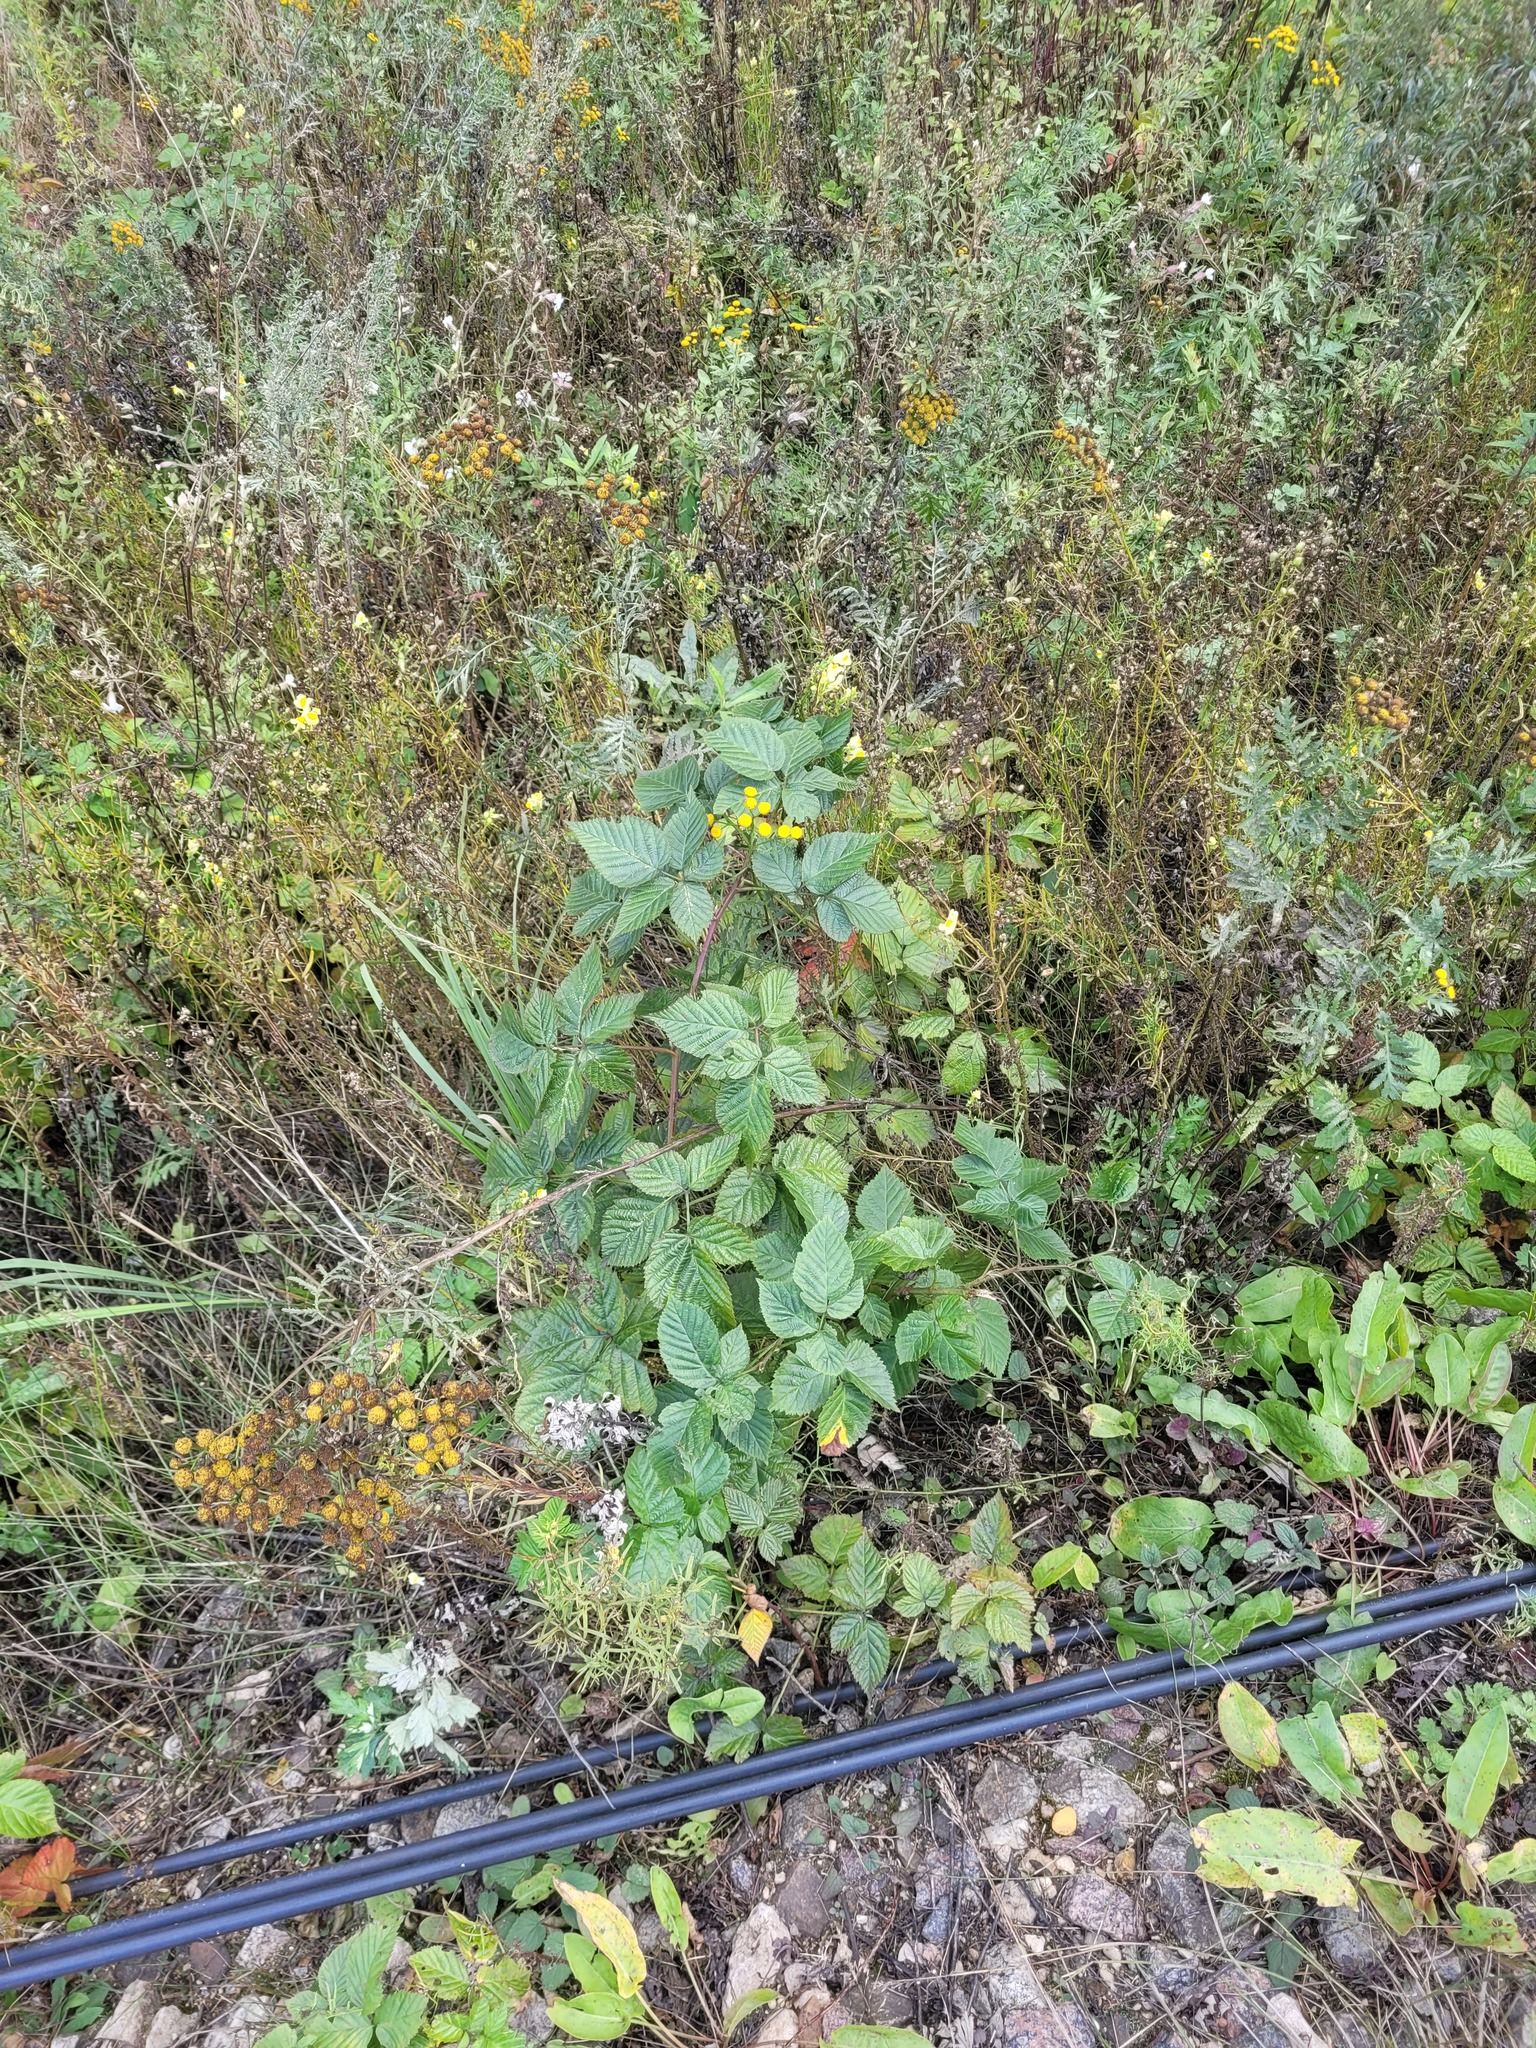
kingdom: Plantae
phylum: Tracheophyta
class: Magnoliopsida
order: Rosales
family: Rosaceae
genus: Rubus
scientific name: Rubus polonicus
